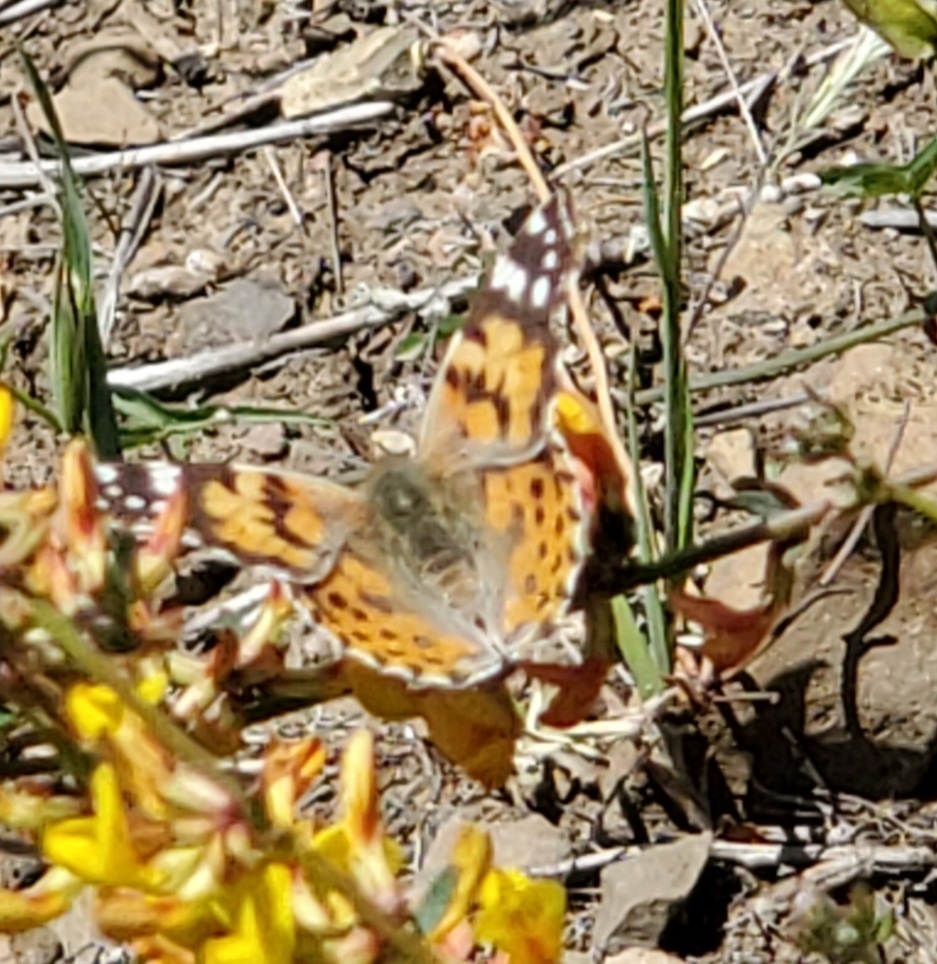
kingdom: Animalia
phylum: Arthropoda
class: Insecta
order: Lepidoptera
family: Nymphalidae
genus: Vanessa
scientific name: Vanessa cardui
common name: Painted lady
